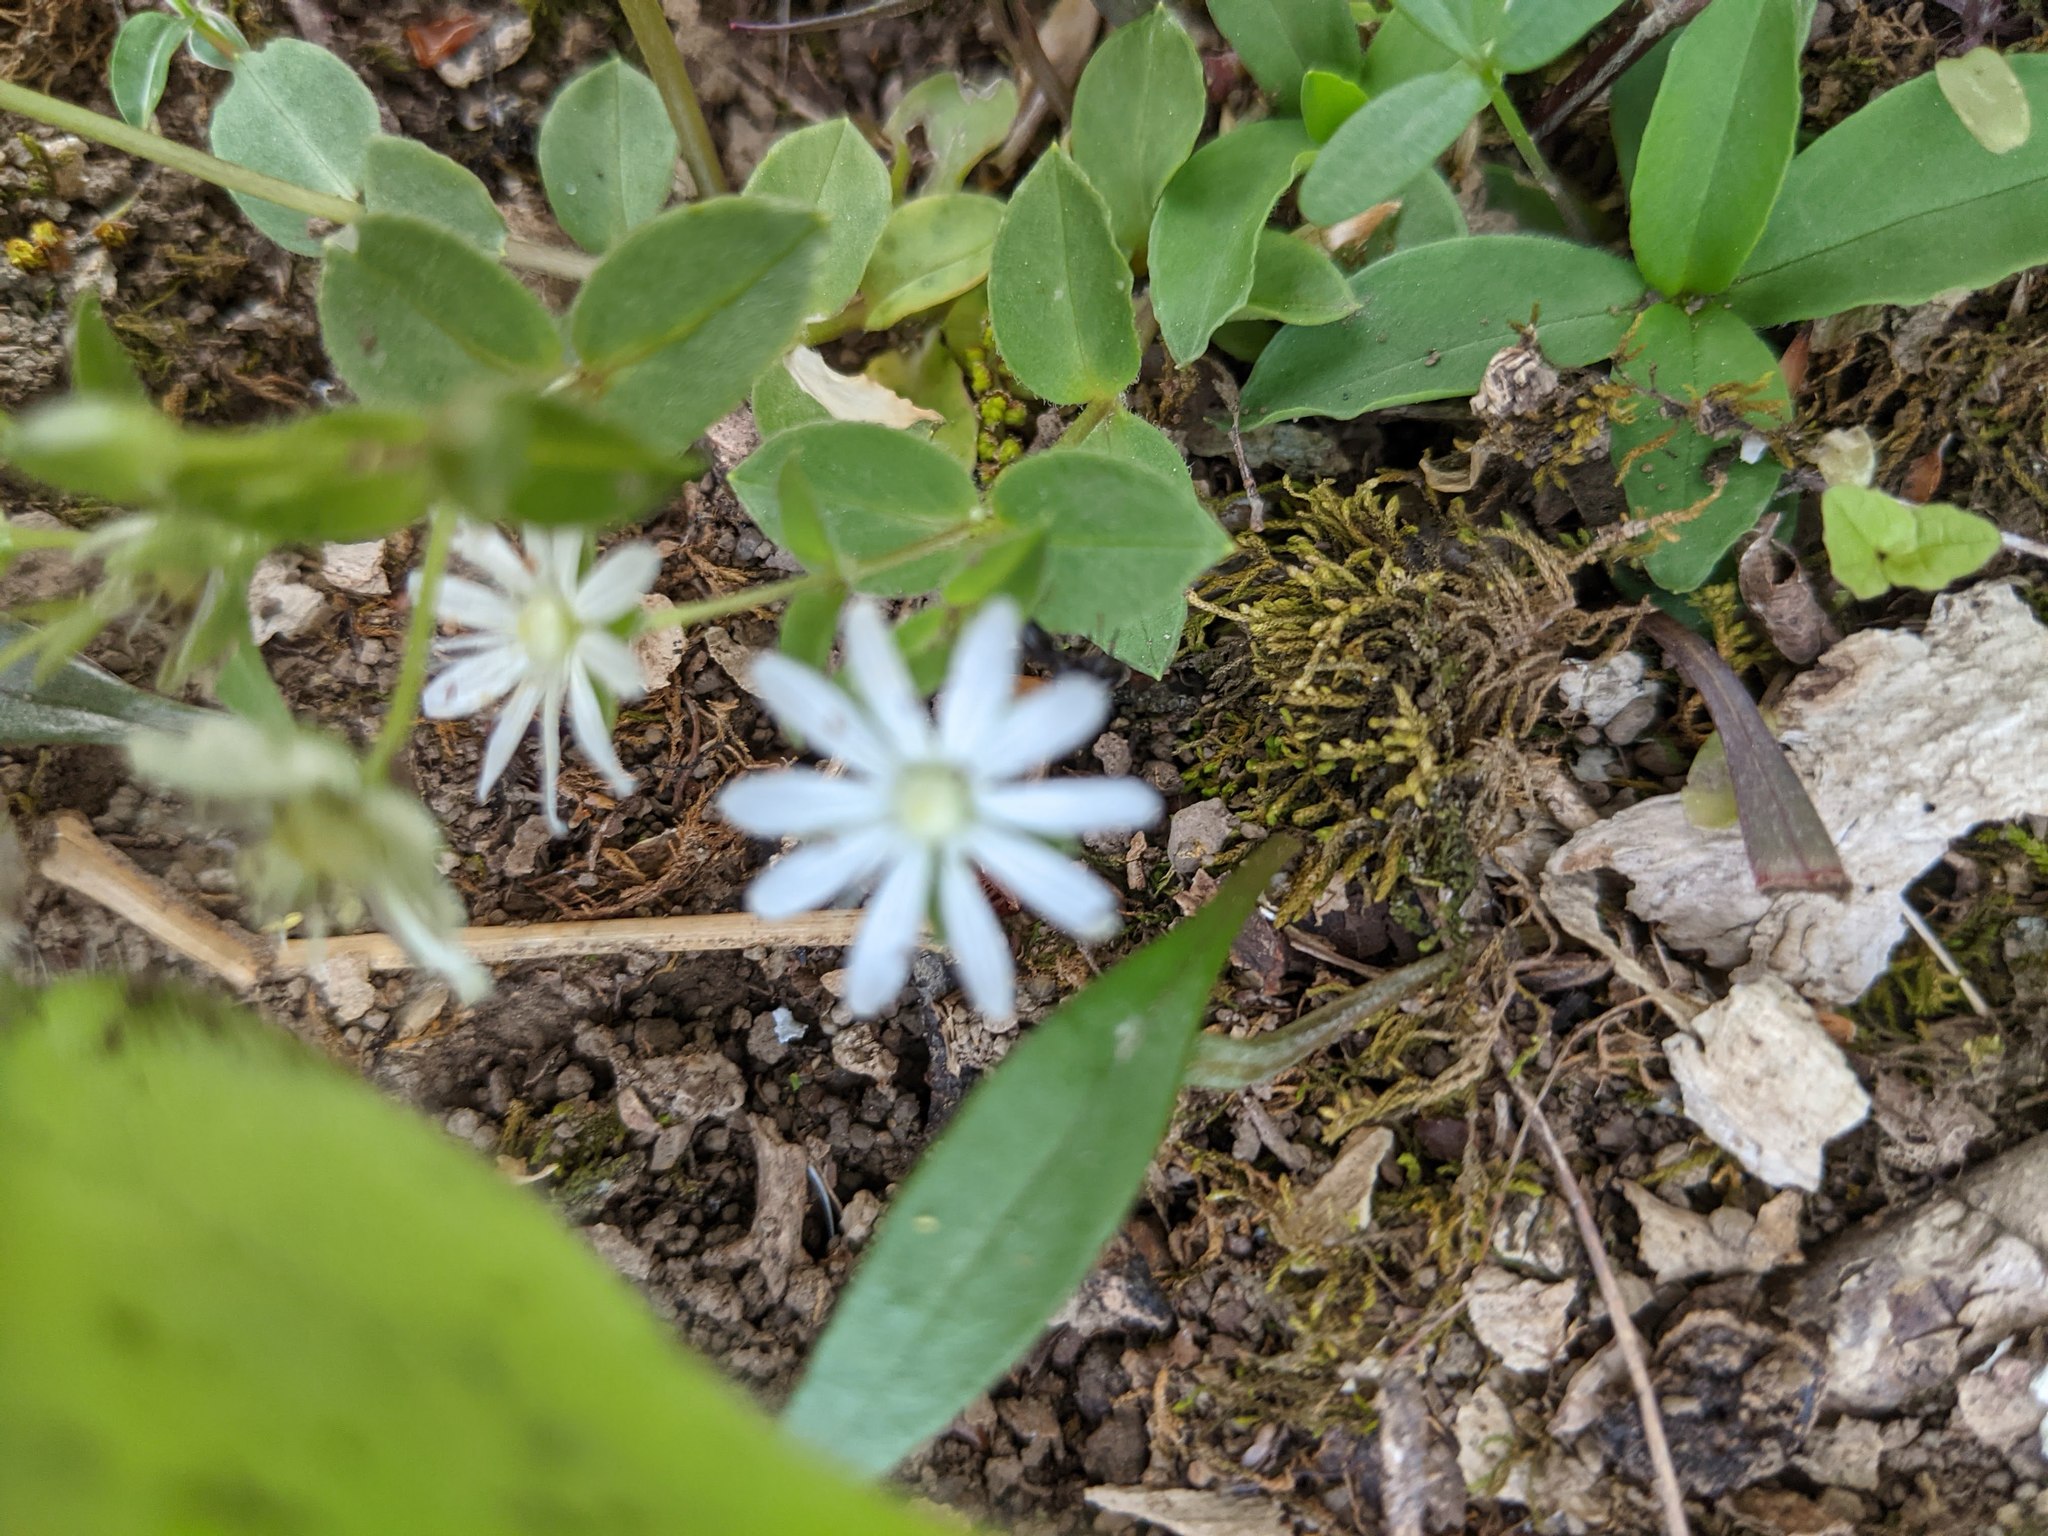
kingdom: Plantae
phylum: Tracheophyta
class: Magnoliopsida
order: Caryophyllales
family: Caryophyllaceae
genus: Stellaria
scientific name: Stellaria pubera
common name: Star chickweed
